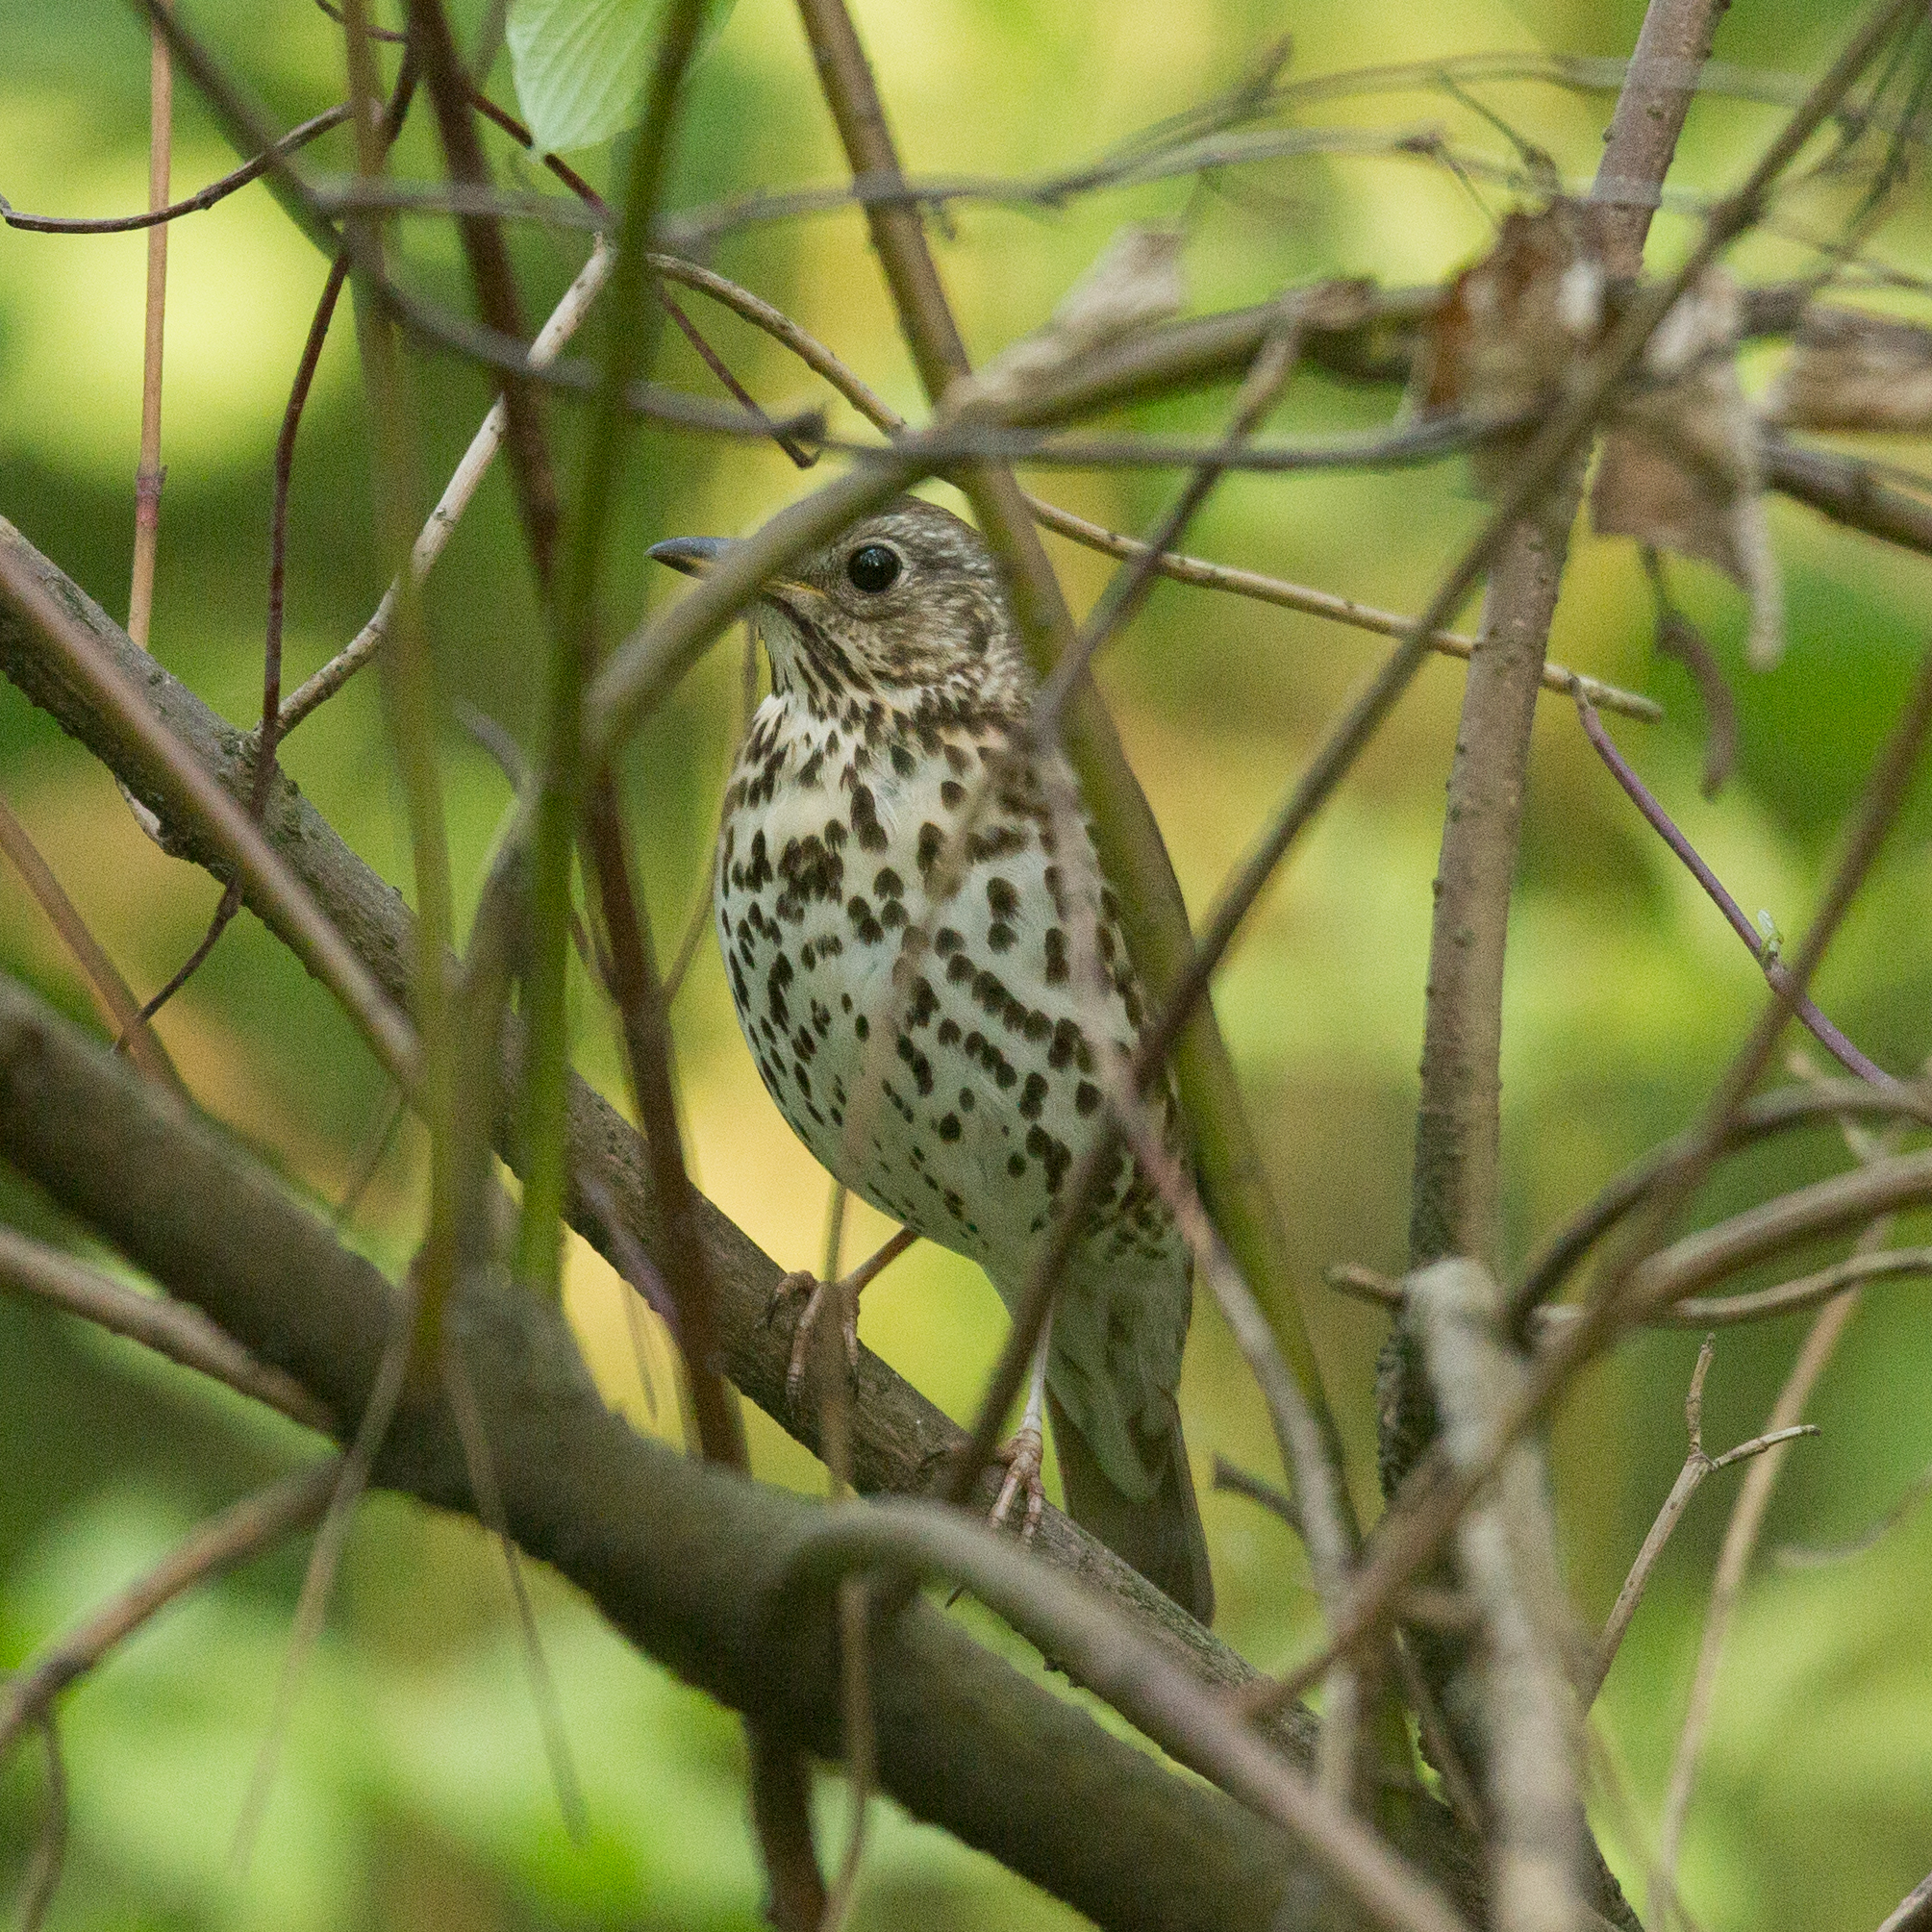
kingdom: Animalia
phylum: Chordata
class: Aves
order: Passeriformes
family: Turdidae
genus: Turdus
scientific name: Turdus philomelos
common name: Song thrush
